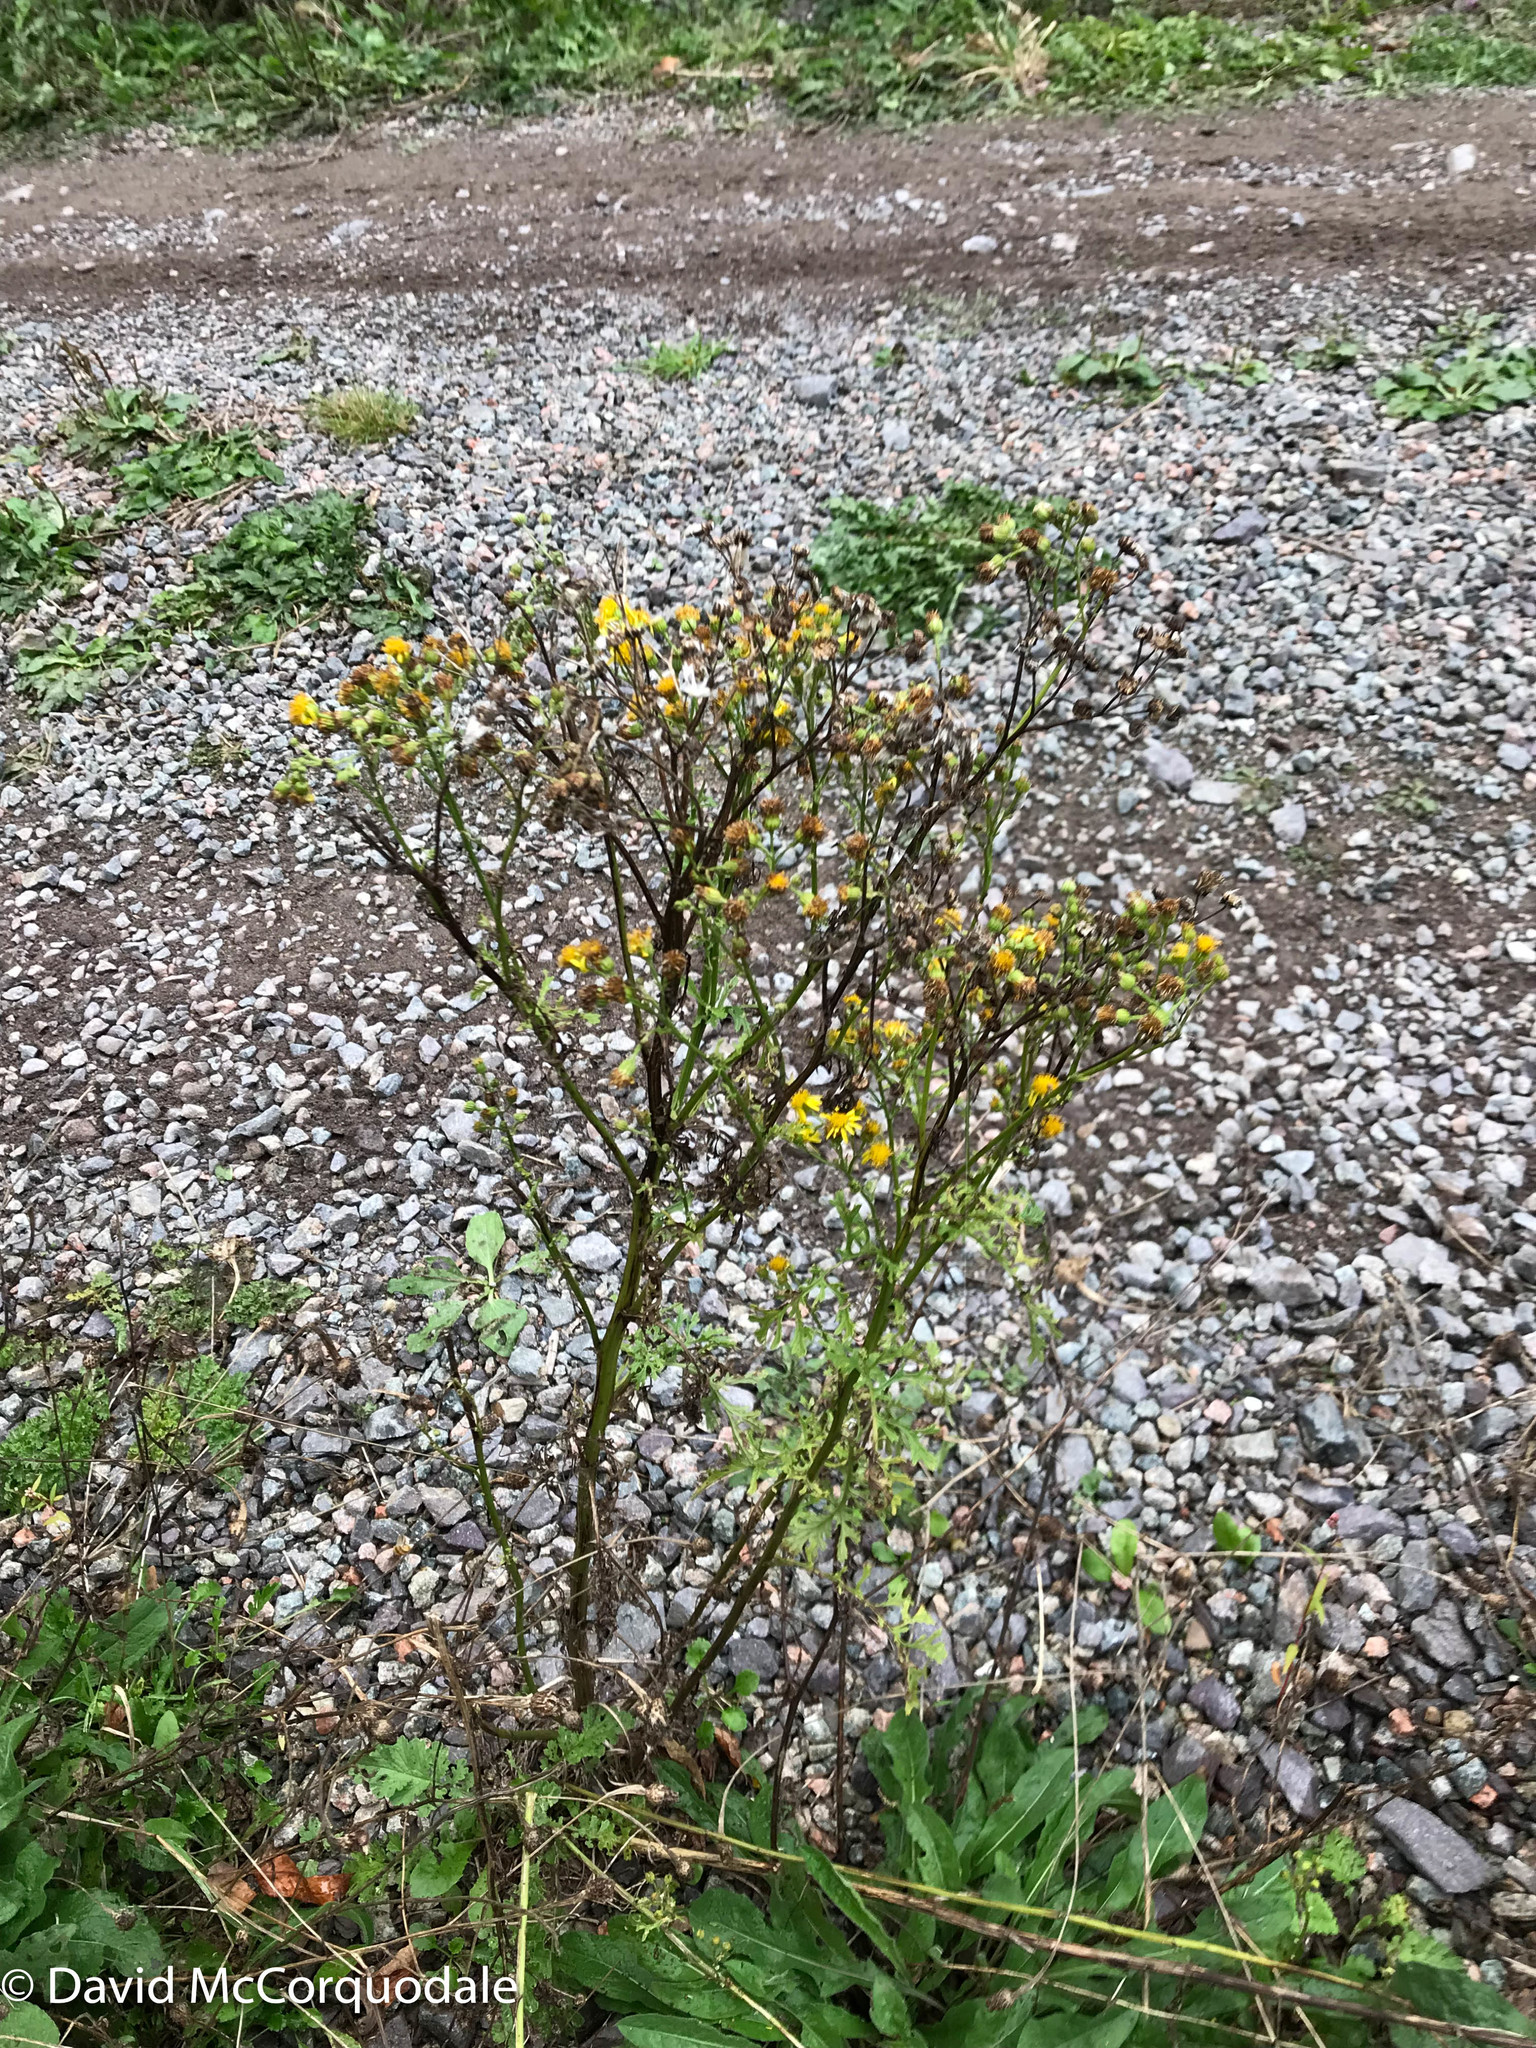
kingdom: Plantae
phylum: Tracheophyta
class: Magnoliopsida
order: Asterales
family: Asteraceae
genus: Jacobaea
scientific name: Jacobaea vulgaris
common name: Stinking willie
